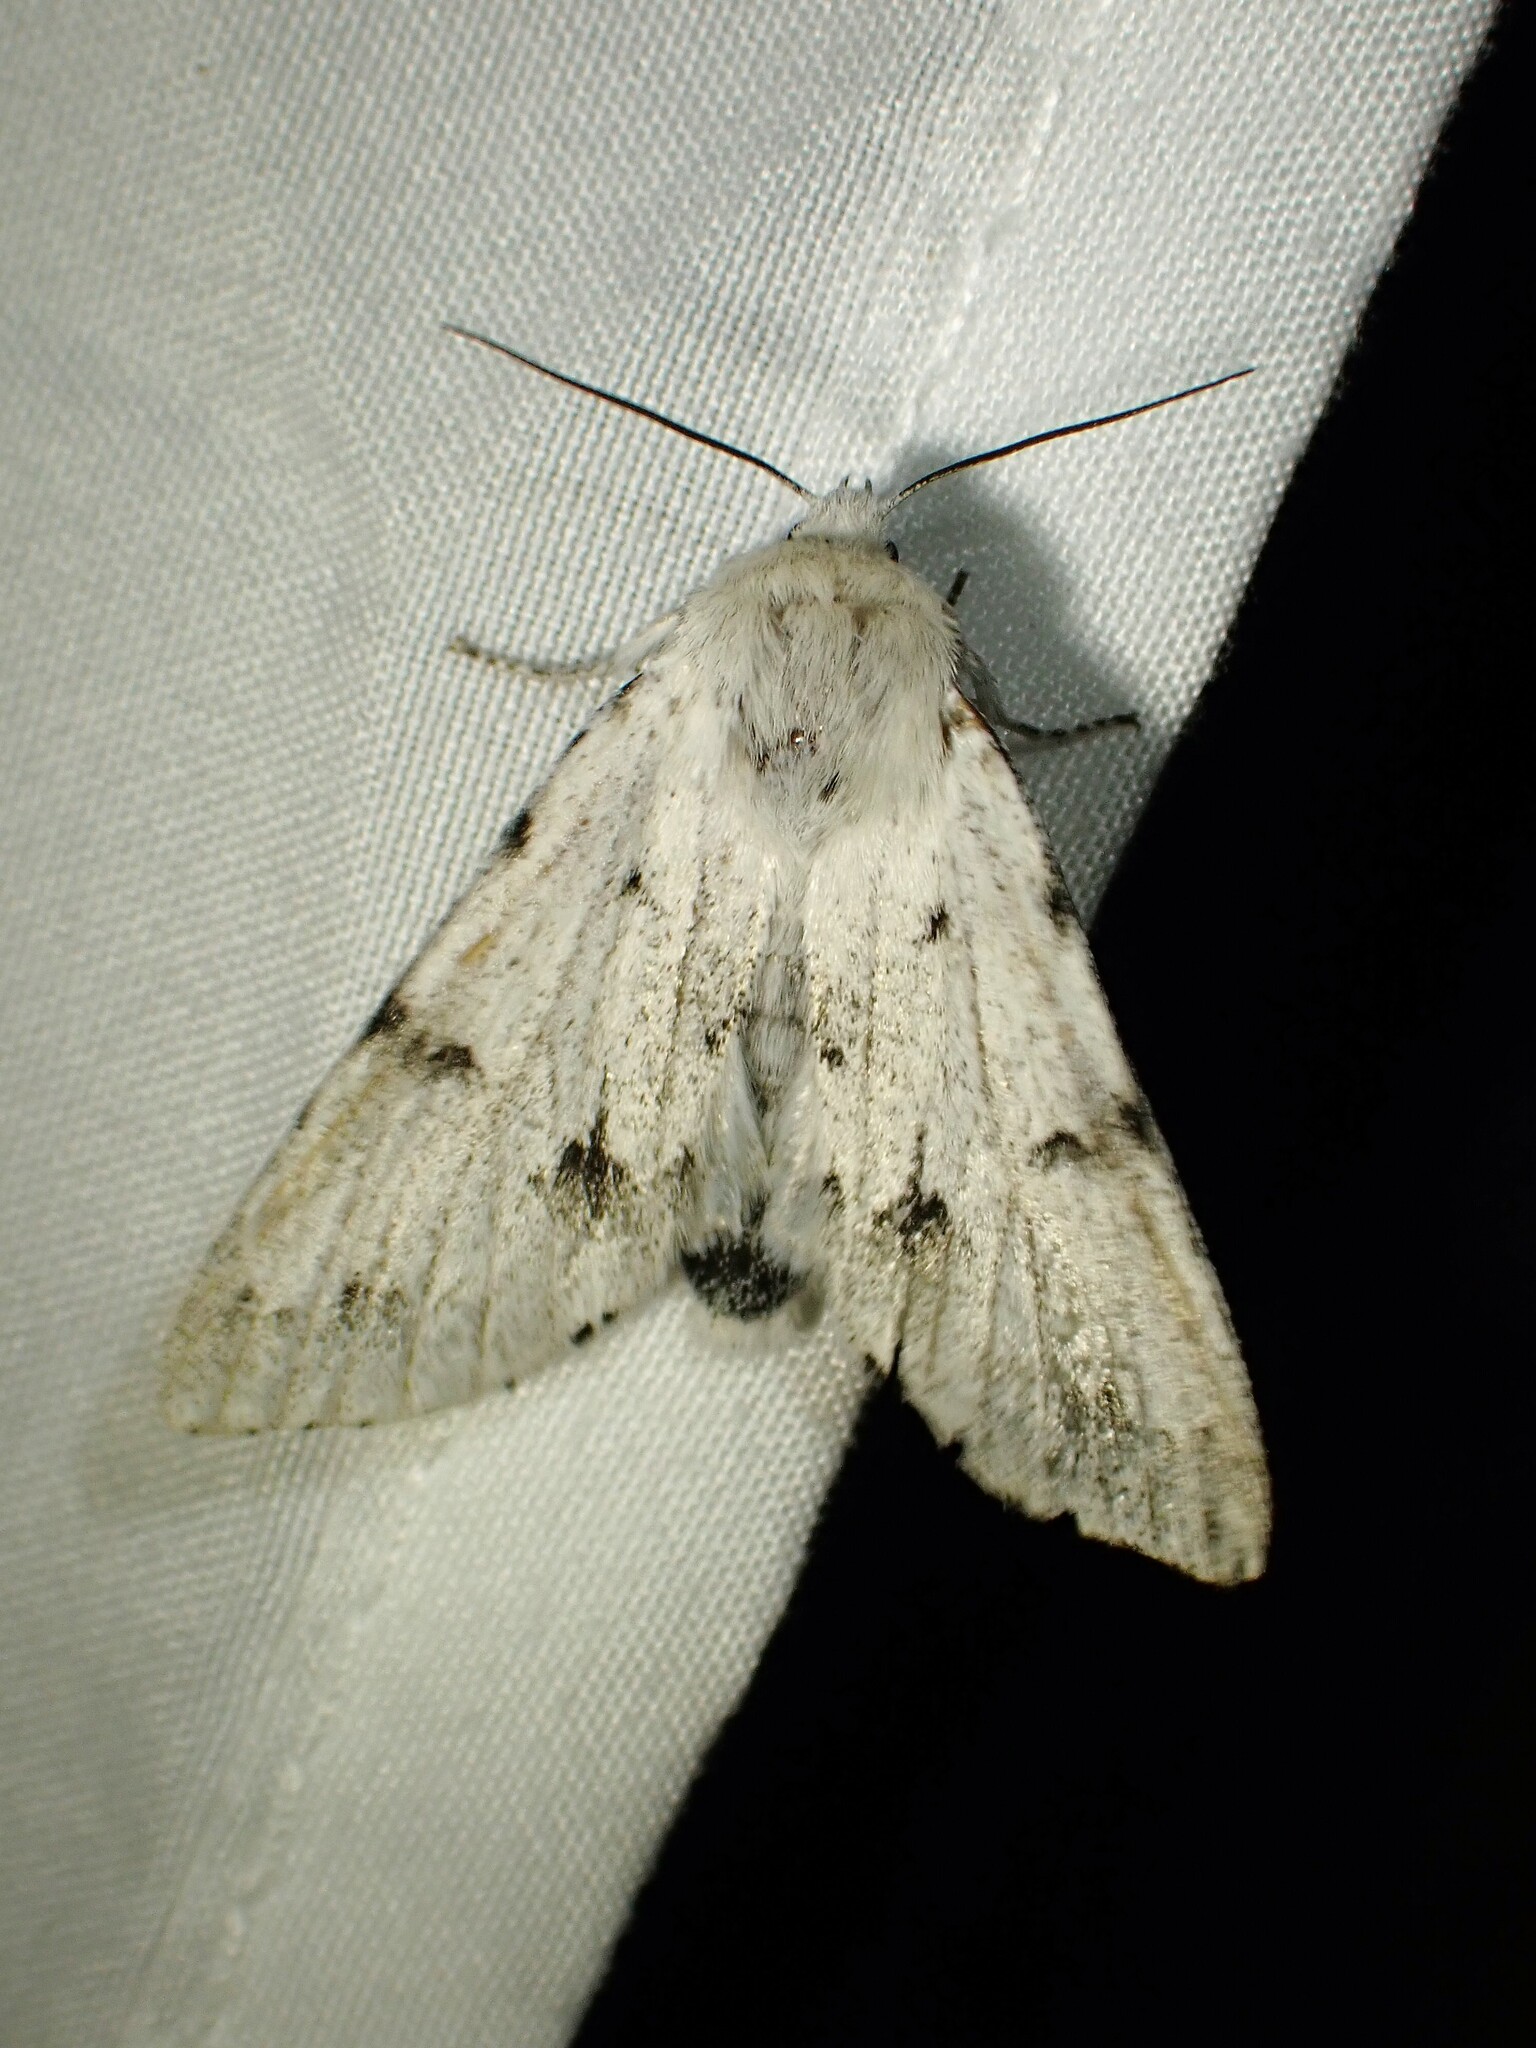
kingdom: Animalia
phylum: Arthropoda
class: Insecta
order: Lepidoptera
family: Noctuidae
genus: Acronicta
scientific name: Acronicta vulpina
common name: Miller dagger
